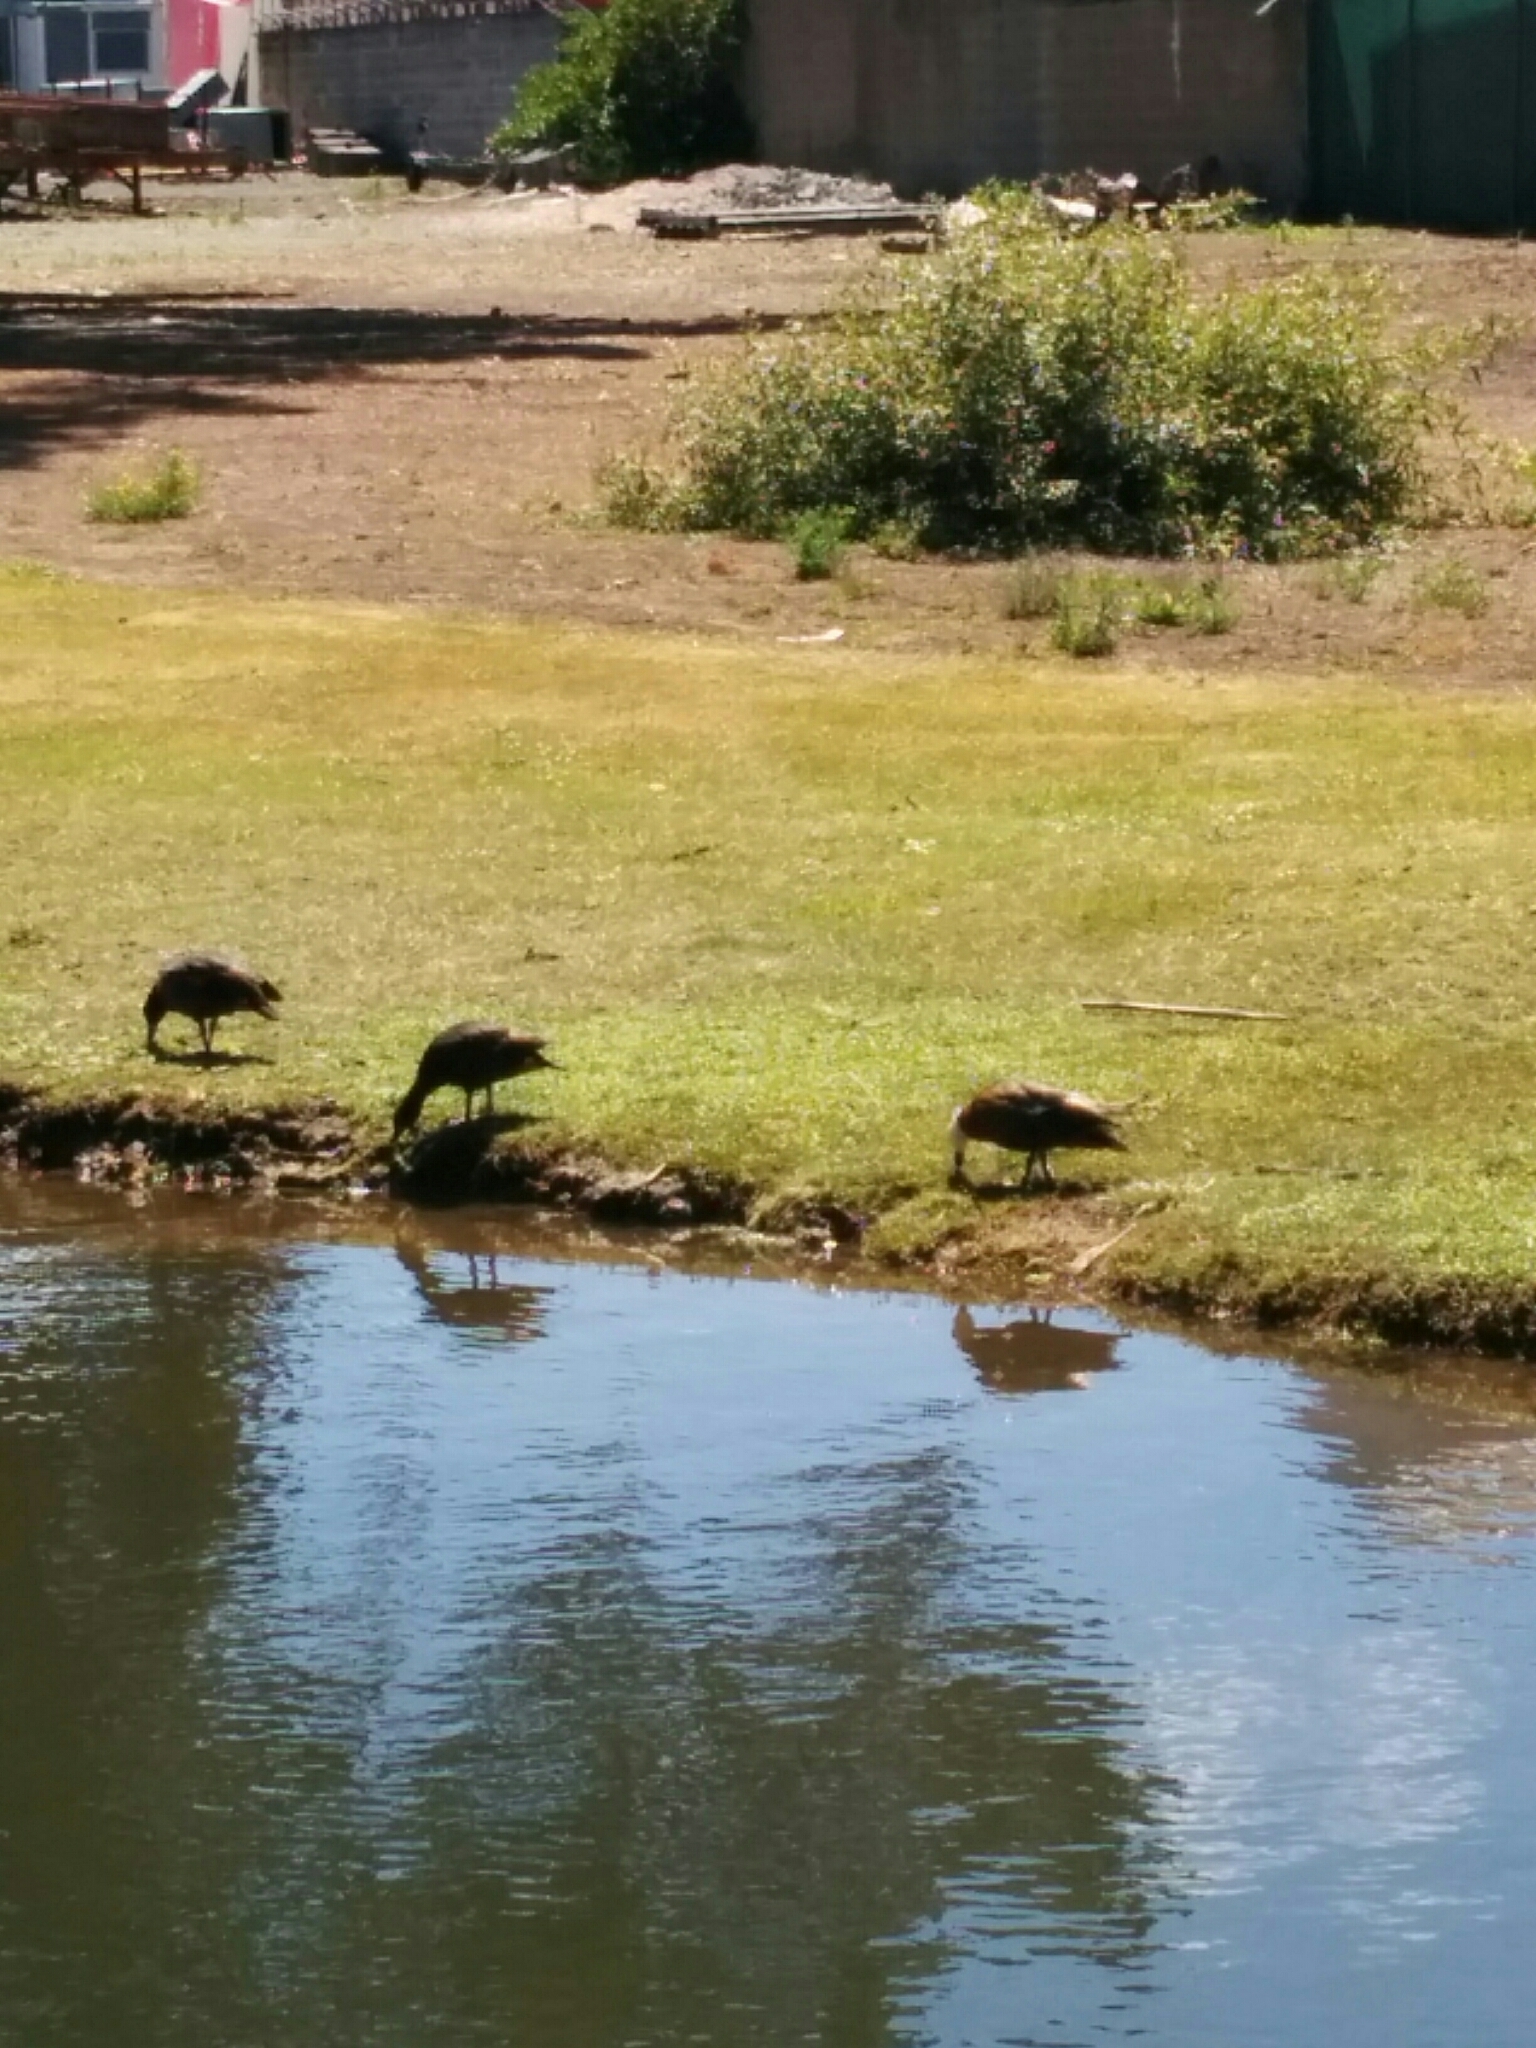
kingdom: Animalia
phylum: Chordata
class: Aves
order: Anseriformes
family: Anatidae
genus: Tadorna
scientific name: Tadorna variegata
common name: Paradise shelduck
